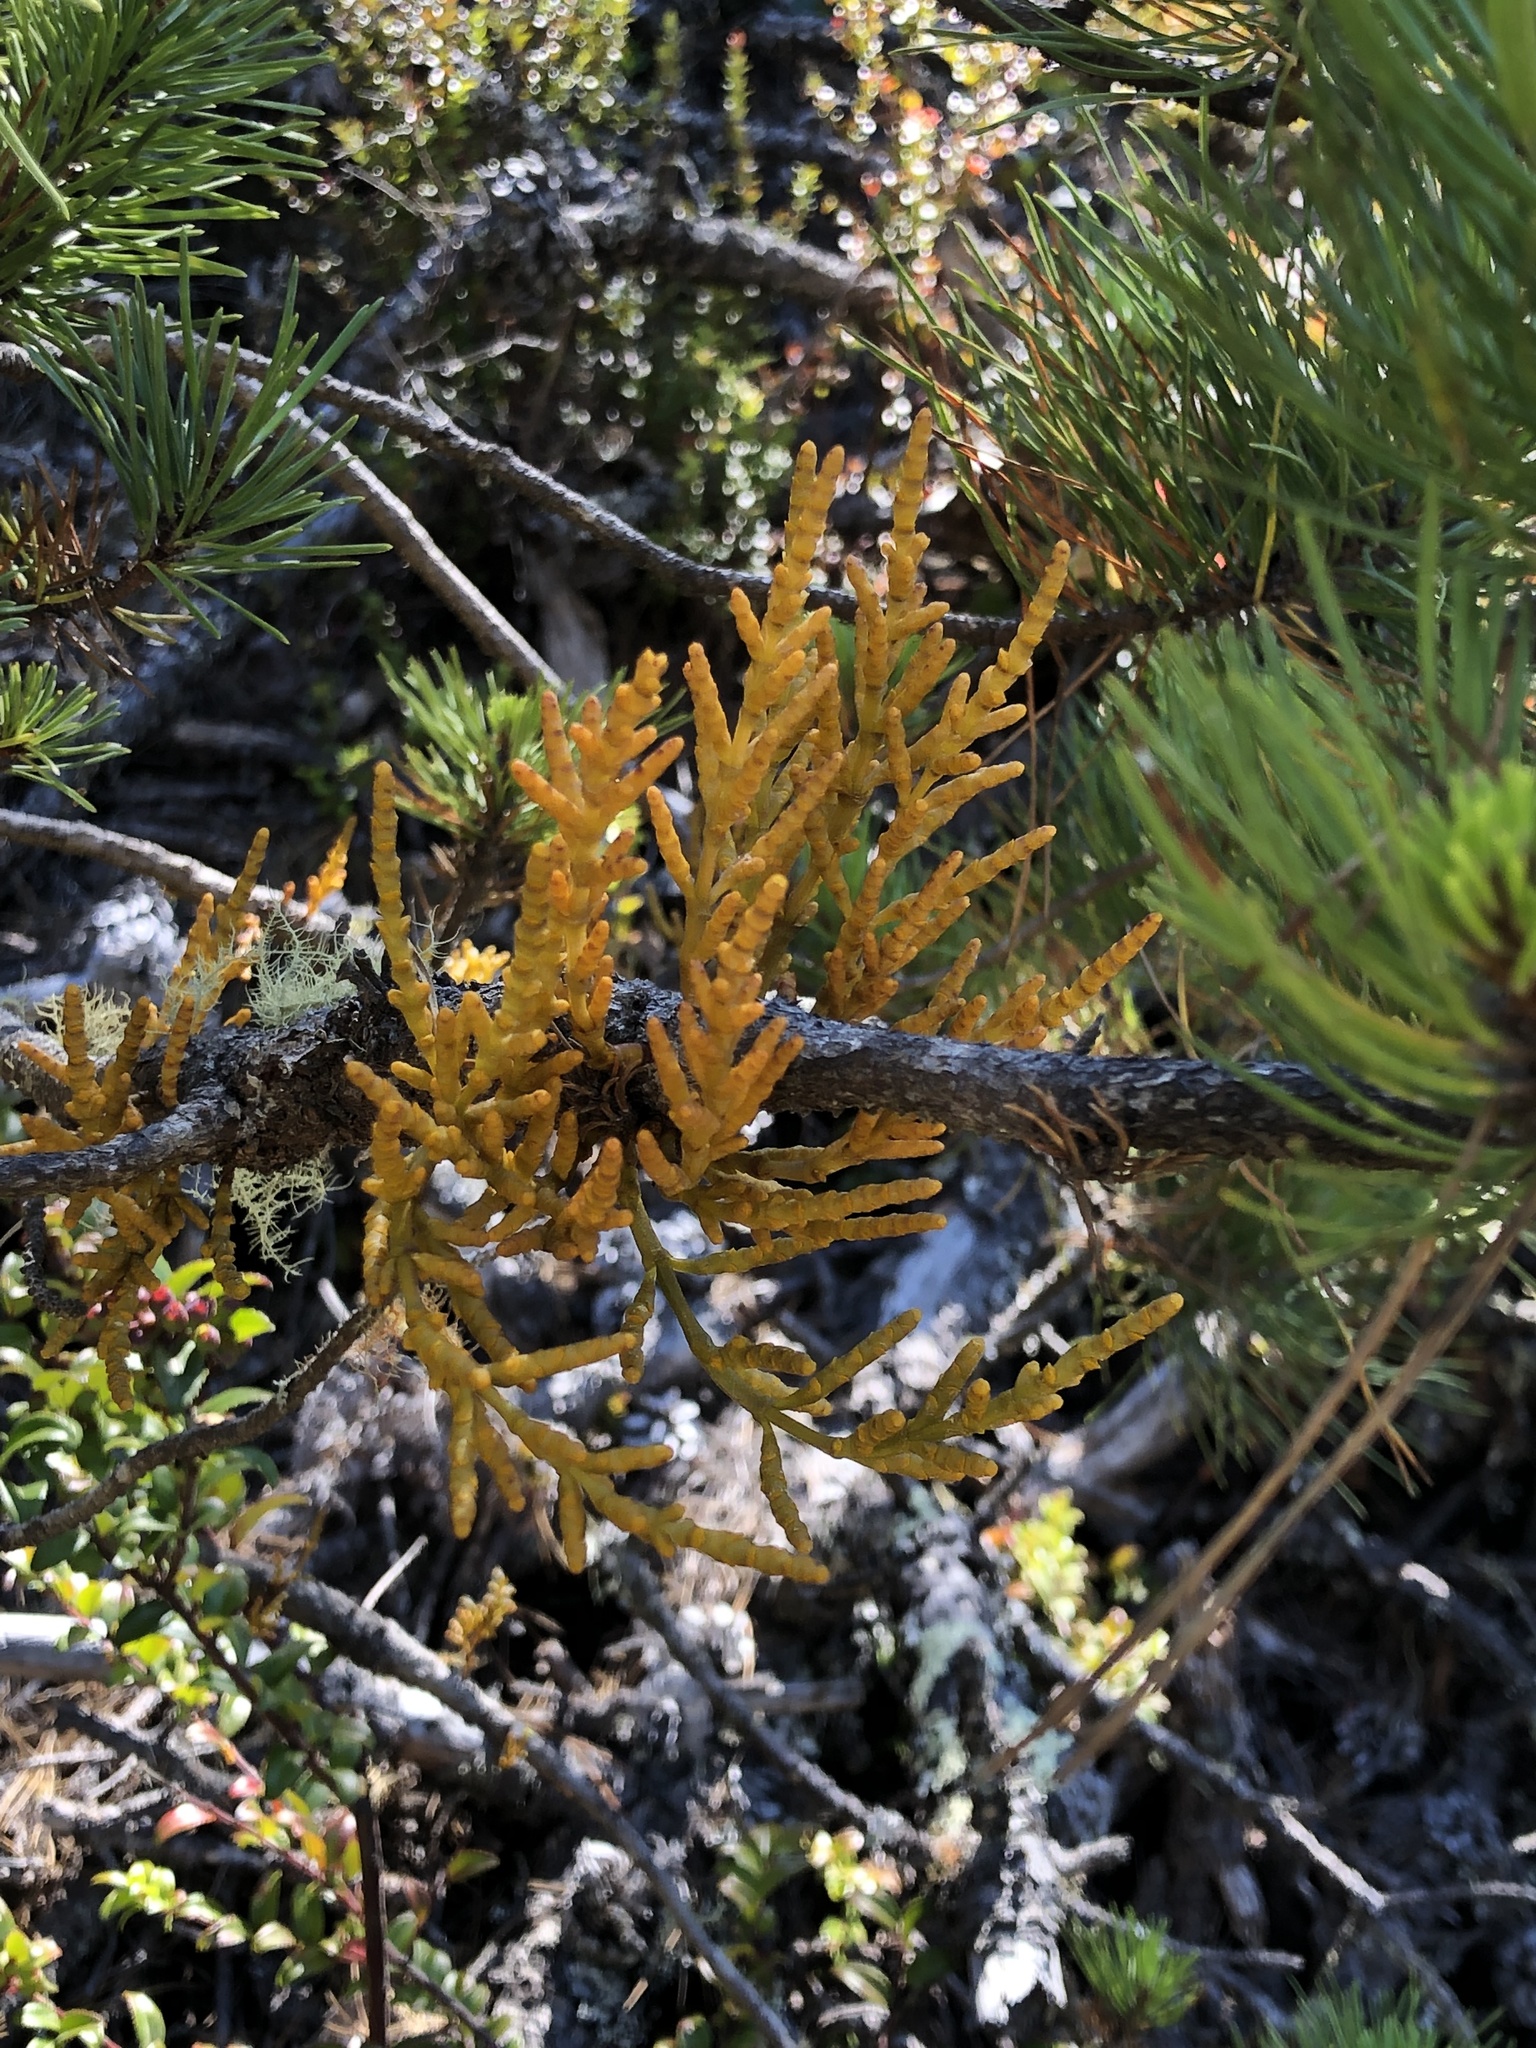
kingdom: Plantae
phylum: Tracheophyta
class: Magnoliopsida
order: Santalales
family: Viscaceae
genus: Arceuthobium
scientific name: Arceuthobium campylopodum
